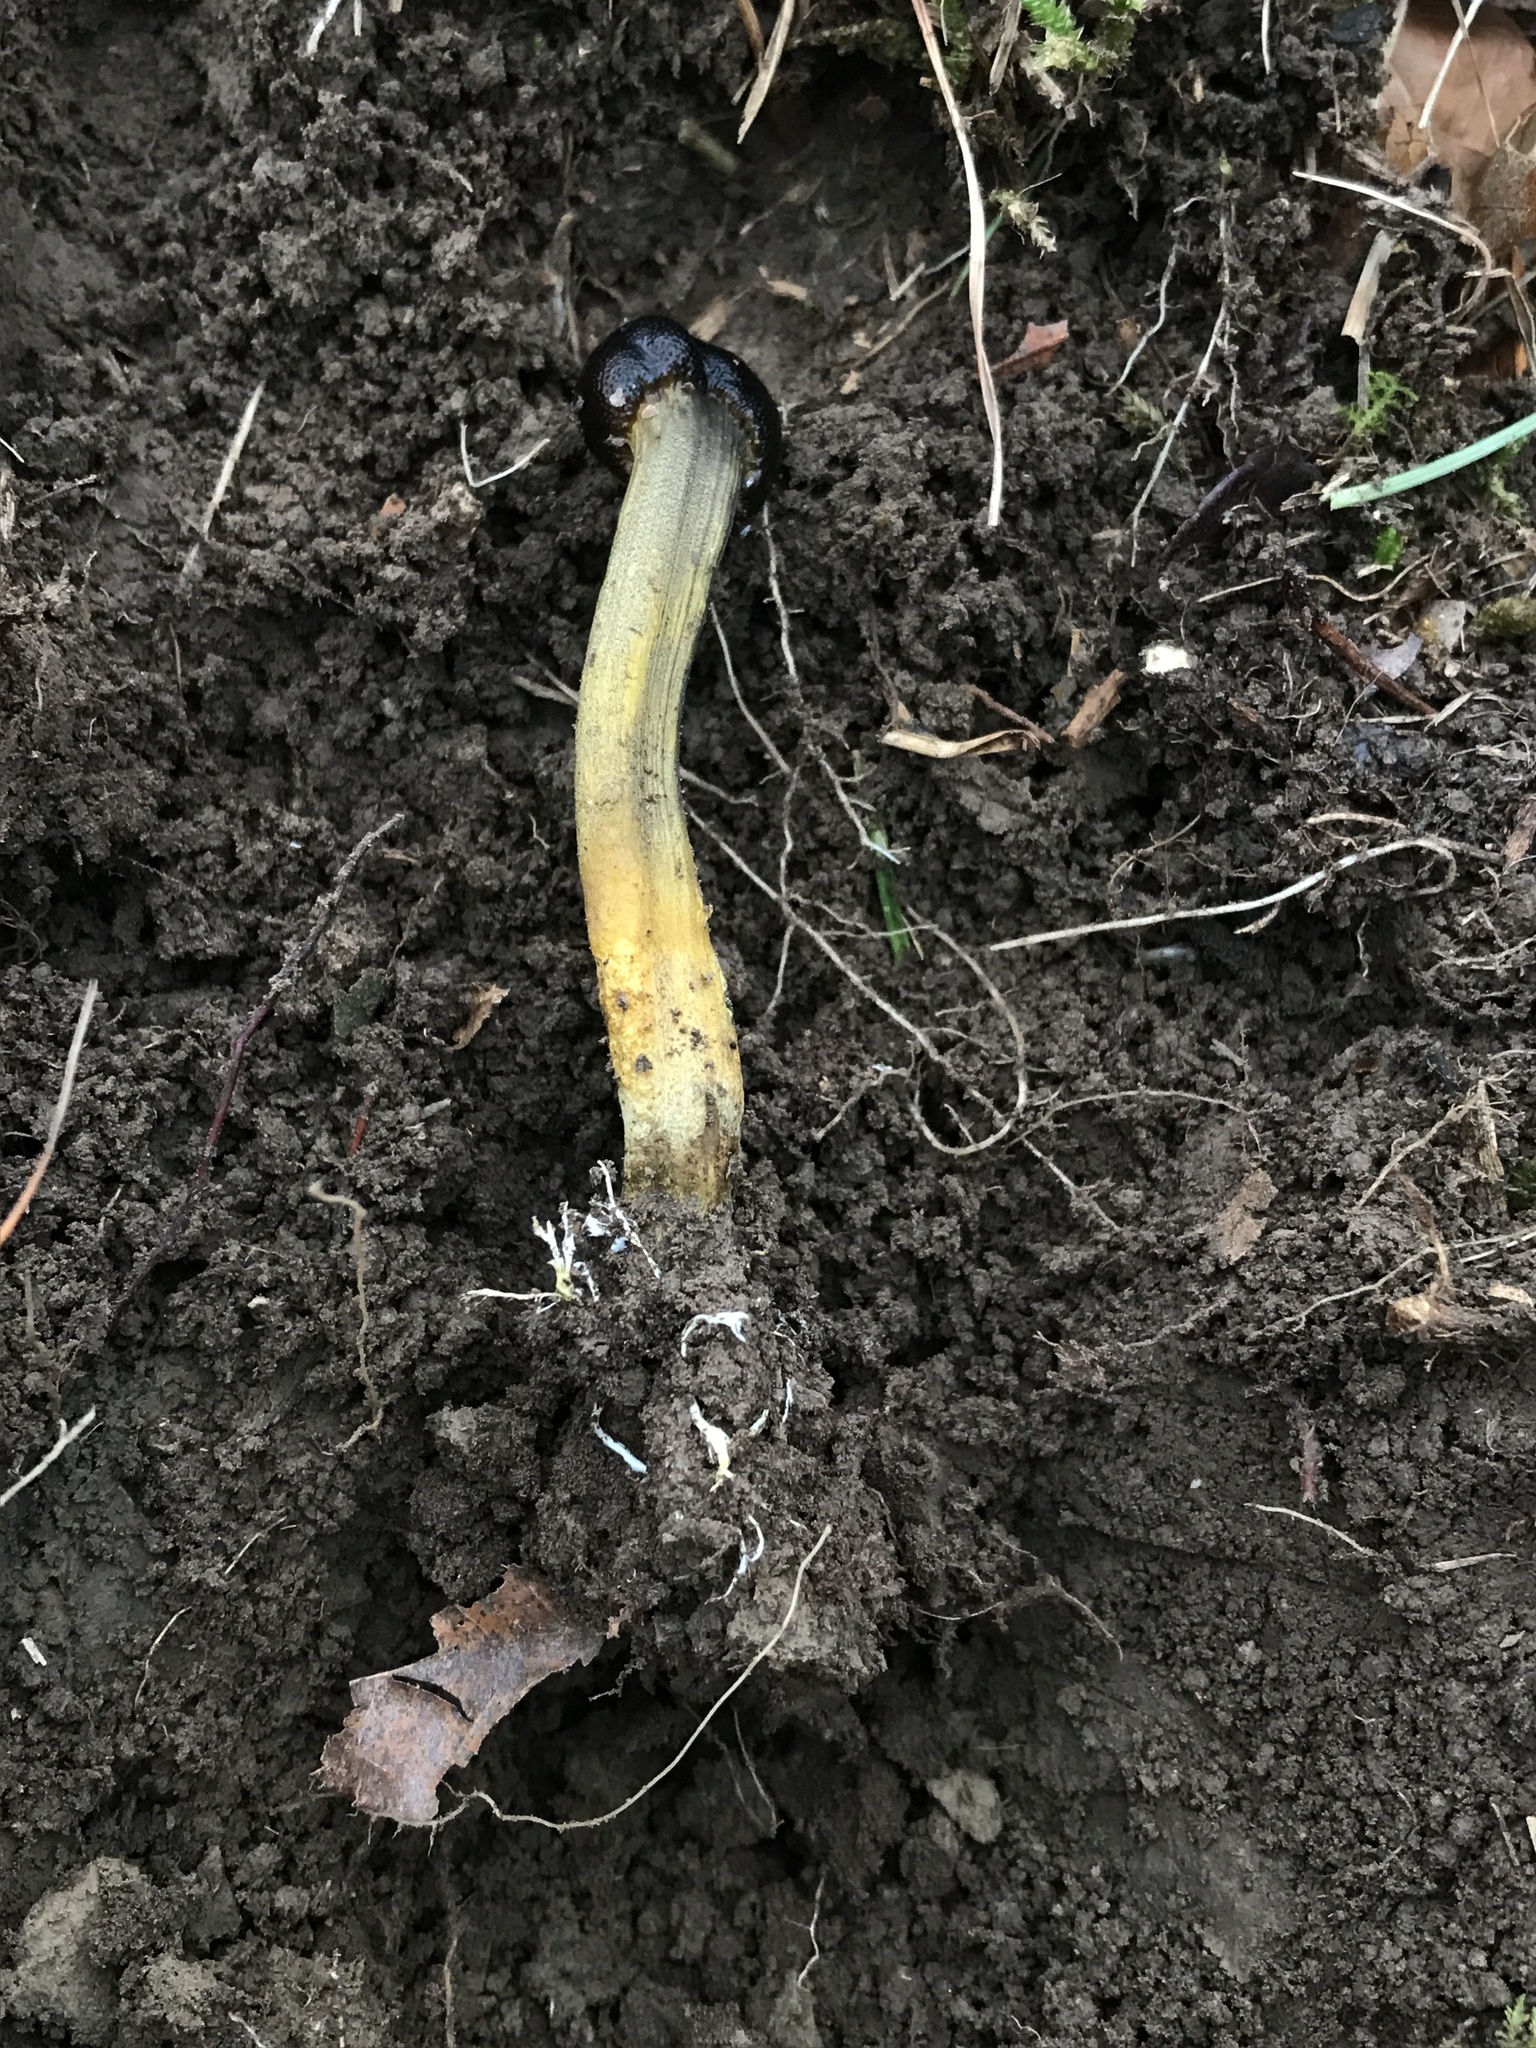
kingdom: Fungi
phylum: Ascomycota
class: Sordariomycetes
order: Hypocreales
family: Ophiocordycipitaceae
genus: Tolypocladium
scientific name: Tolypocladium longisegmentatum
